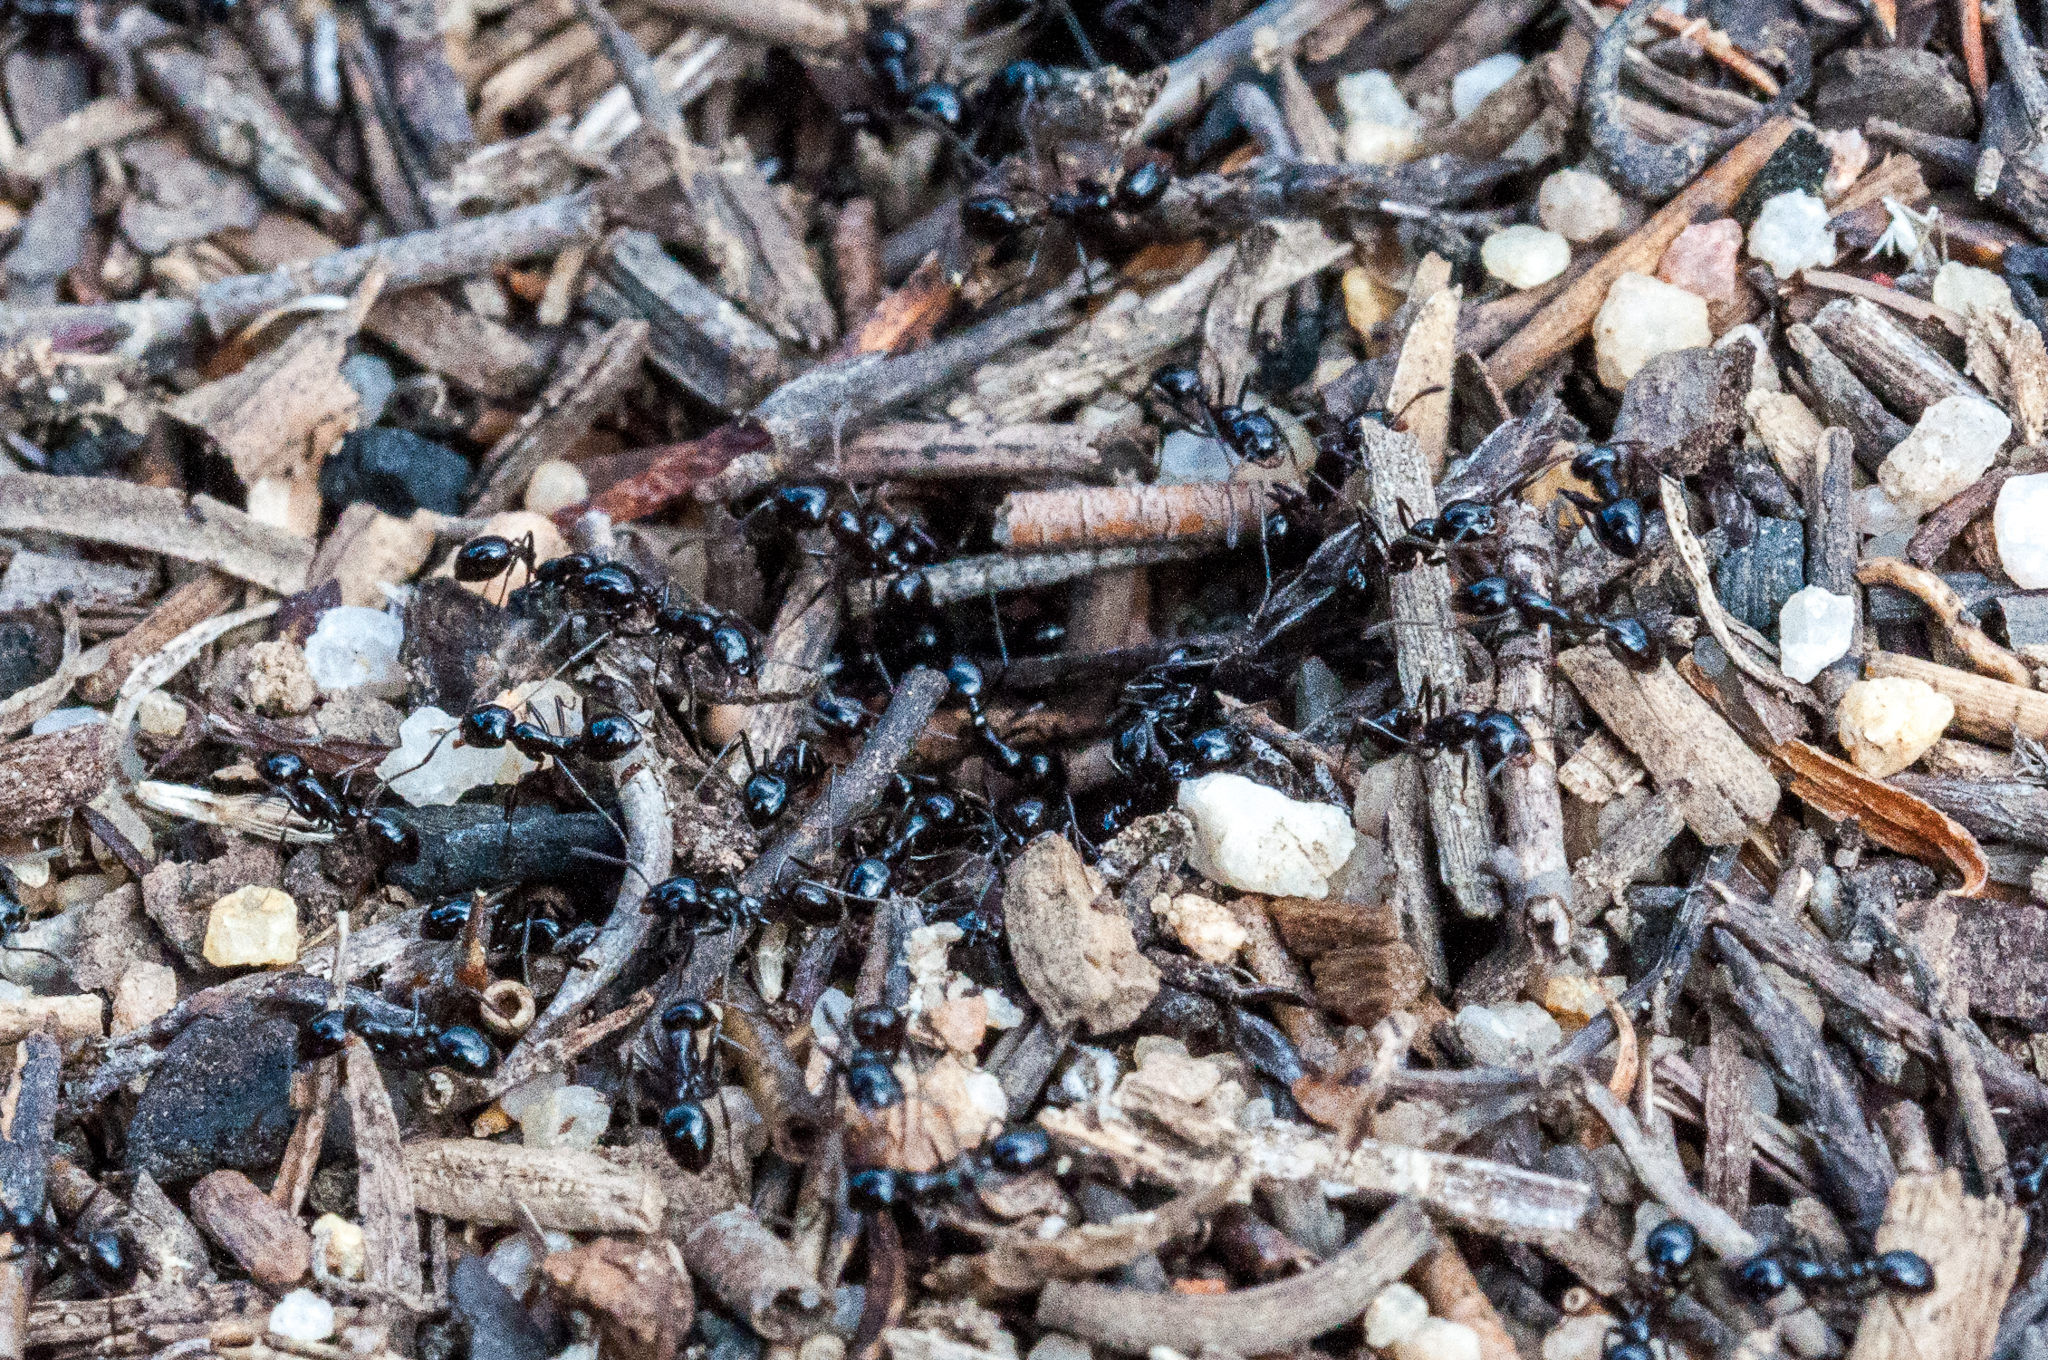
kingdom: Animalia
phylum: Arthropoda
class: Insecta
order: Hymenoptera
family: Formicidae
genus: Monomorium
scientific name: Monomorium fridae
